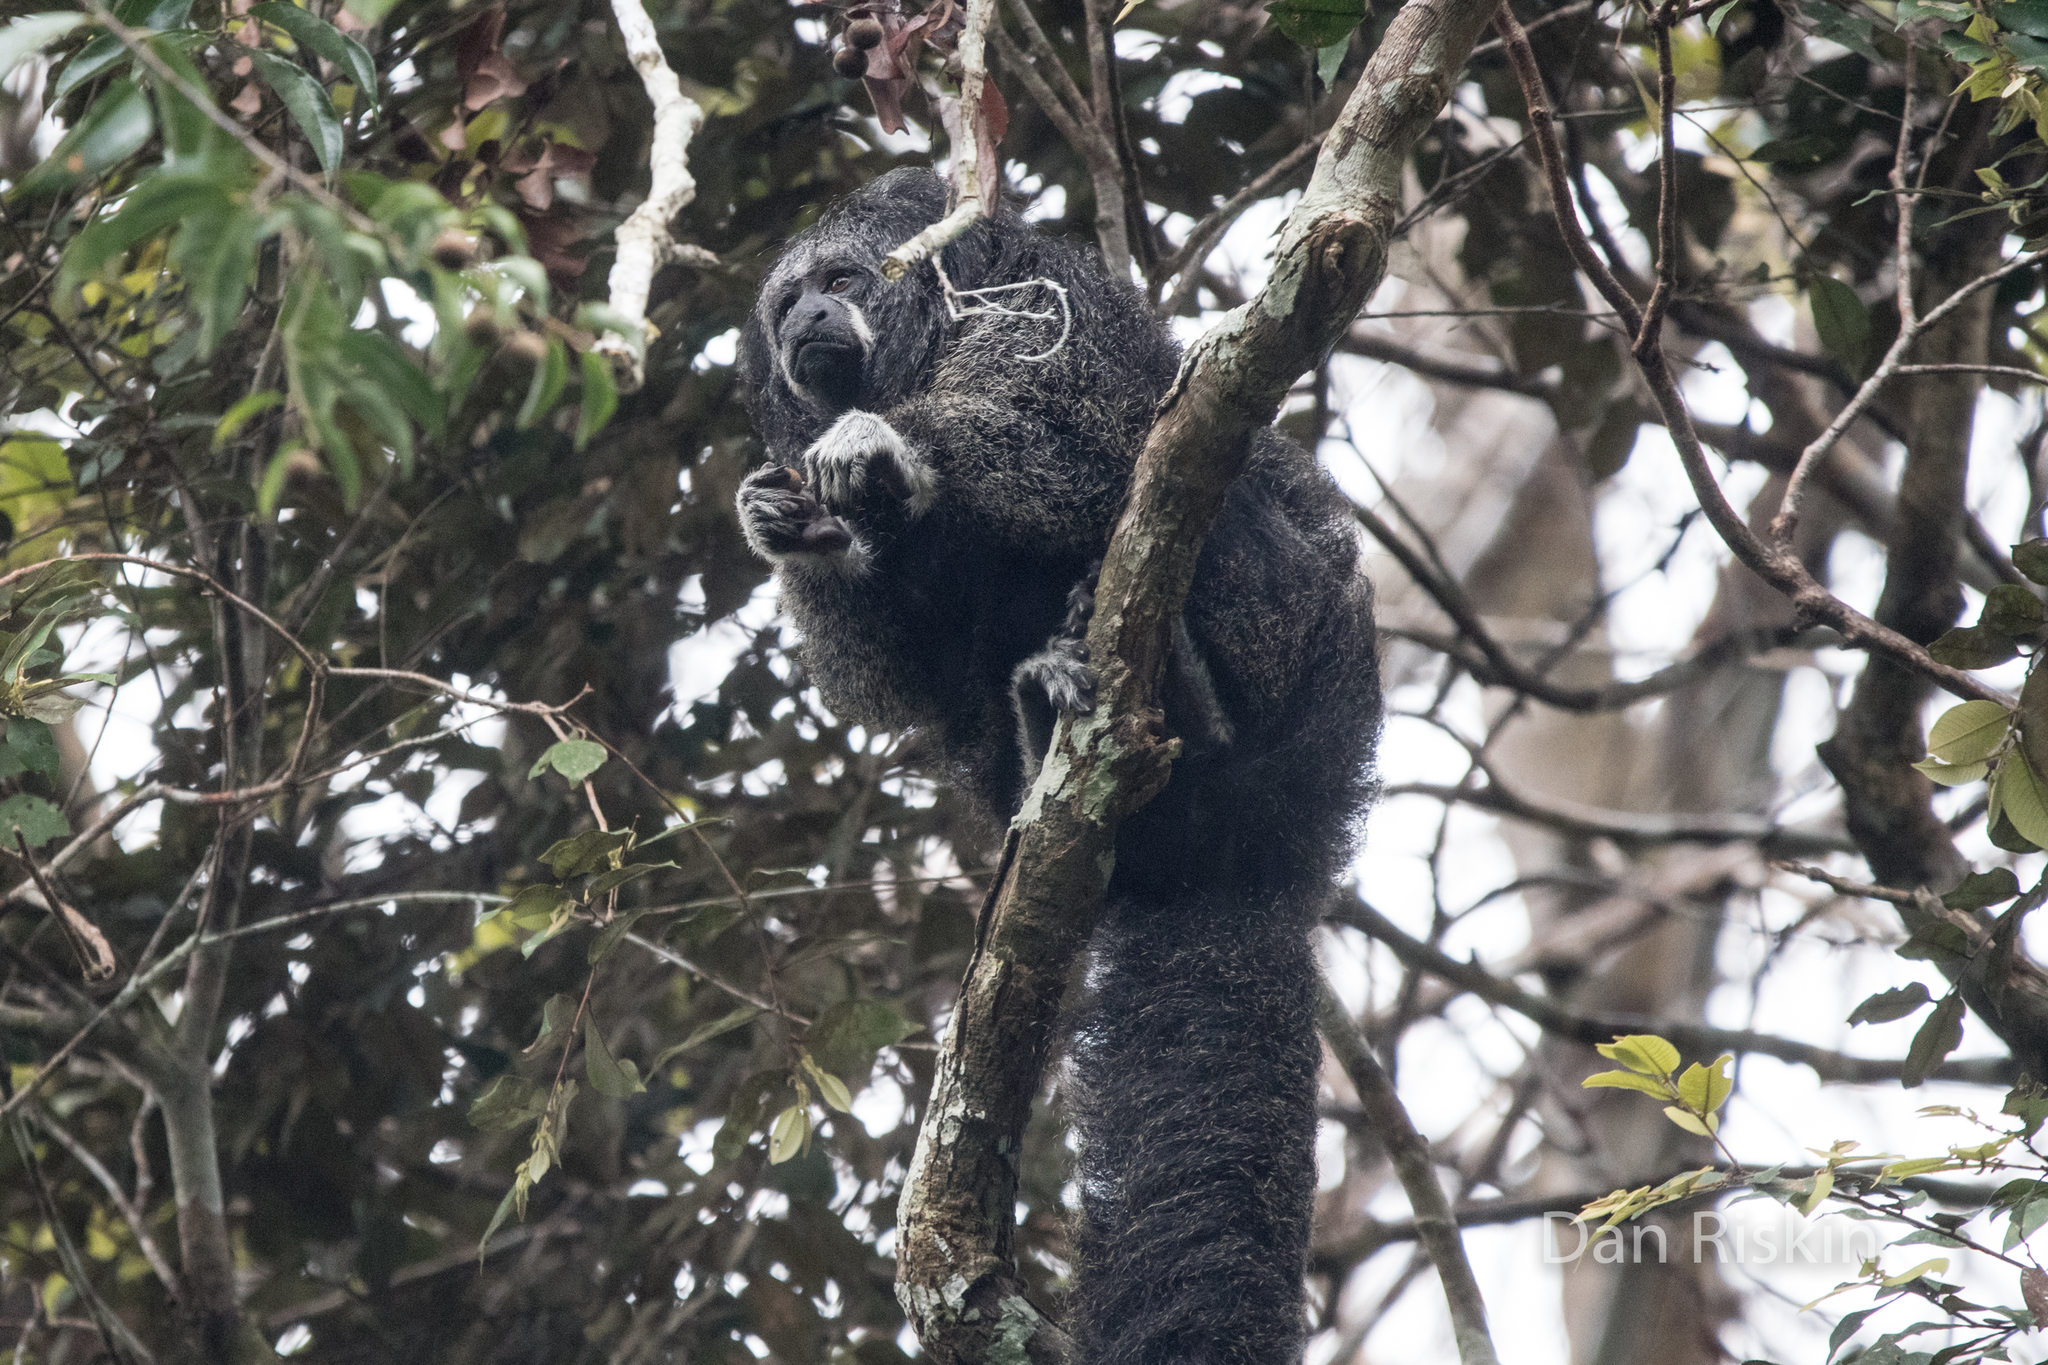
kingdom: Animalia
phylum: Chordata
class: Mammalia
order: Primates
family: Pitheciidae
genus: Pithecia
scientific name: Pithecia isabela
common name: Isabel's saki
